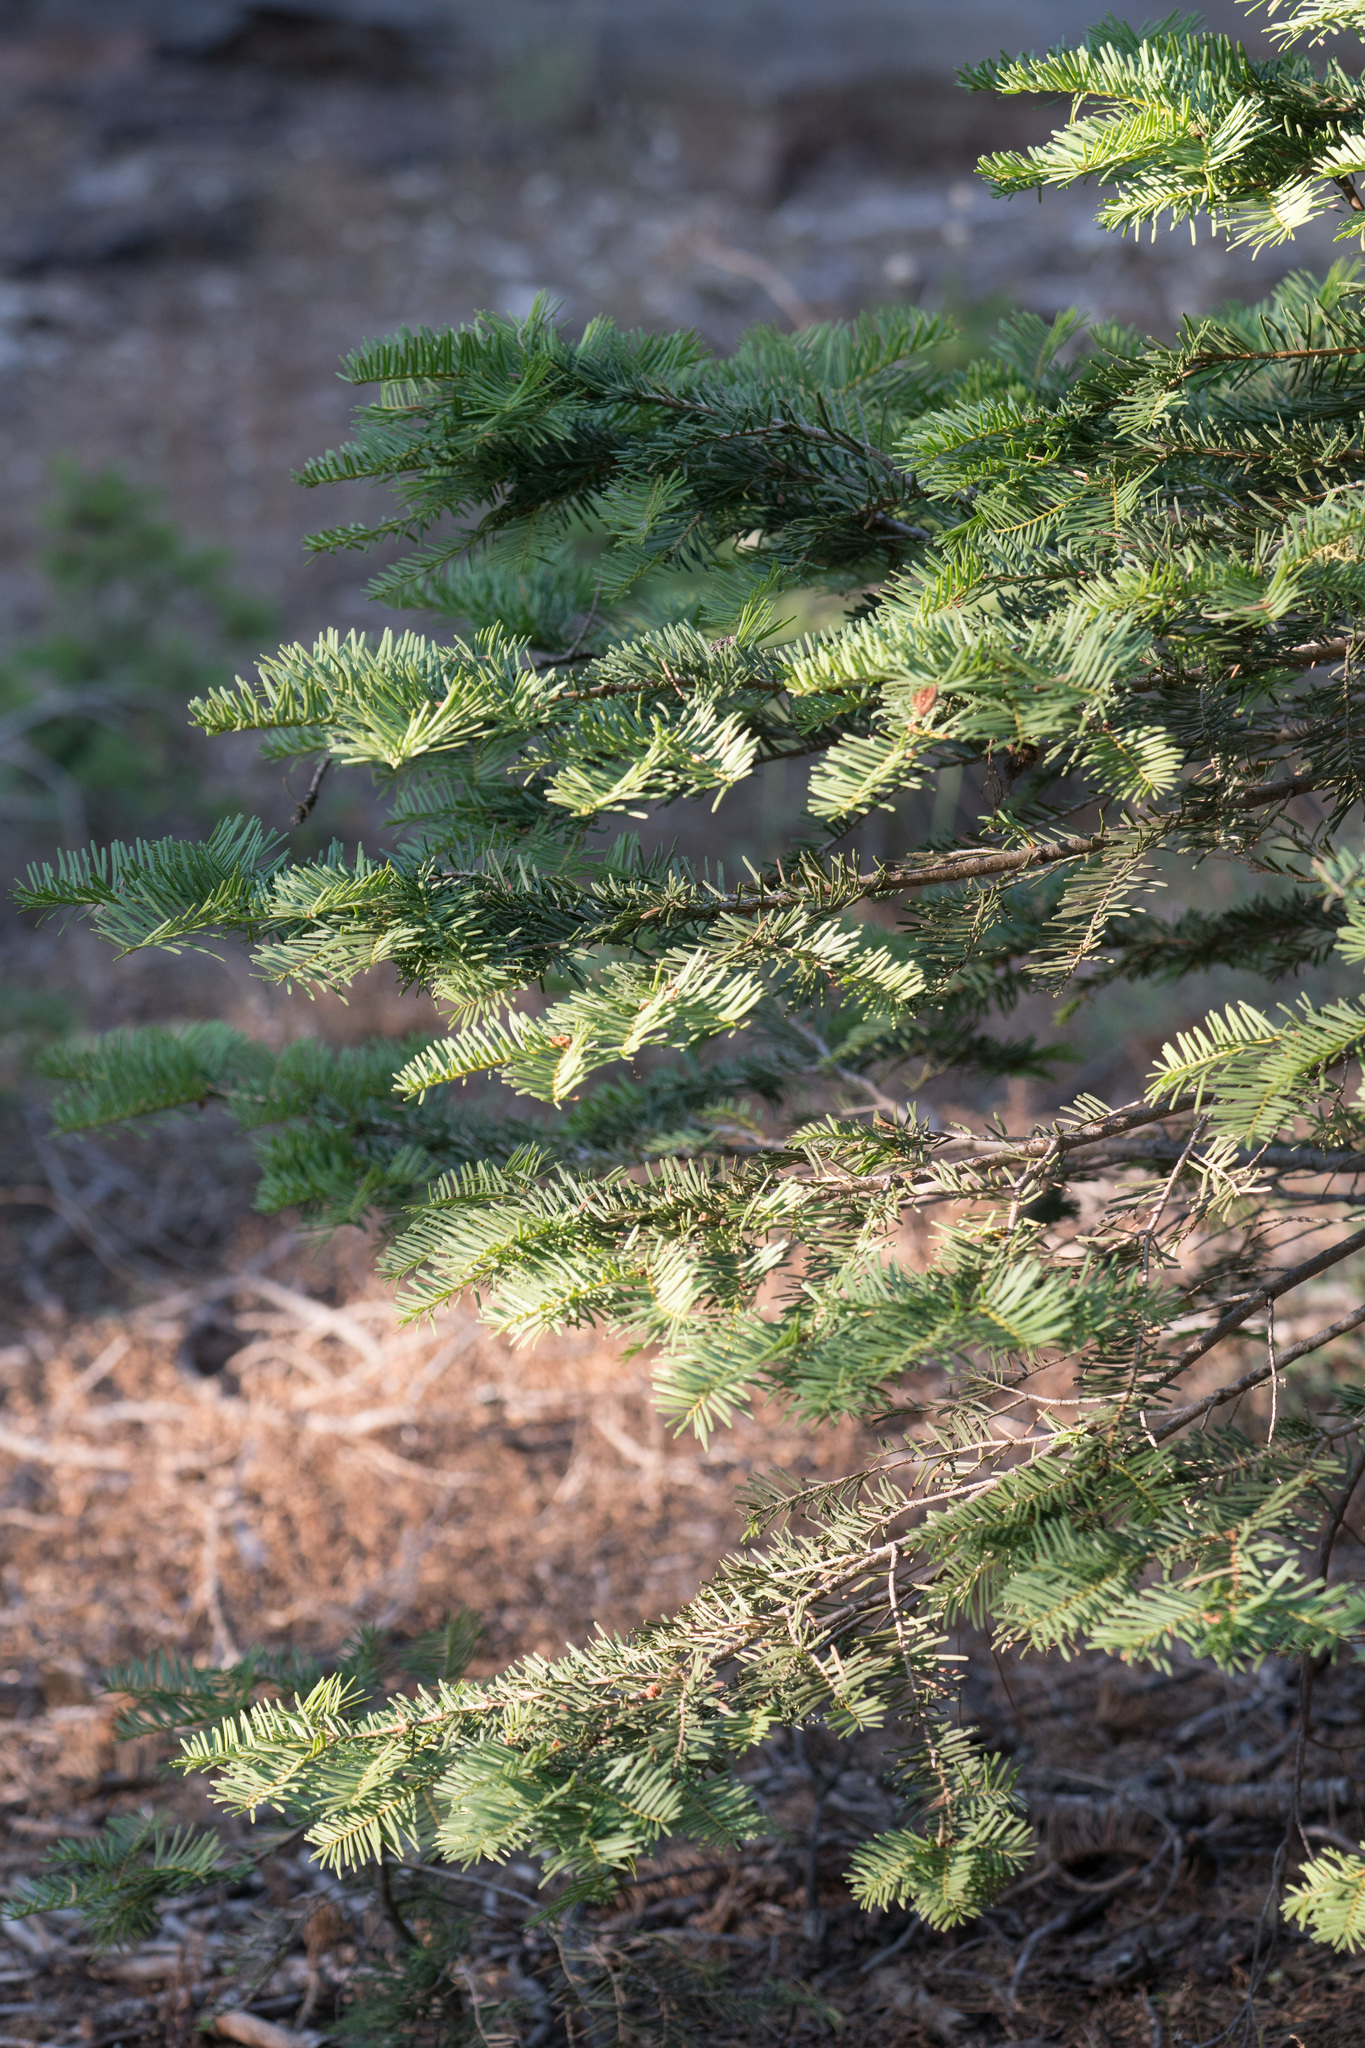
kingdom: Plantae
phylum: Tracheophyta
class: Pinopsida
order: Pinales
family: Pinaceae
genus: Abies
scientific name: Abies concolor
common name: Colorado fir
